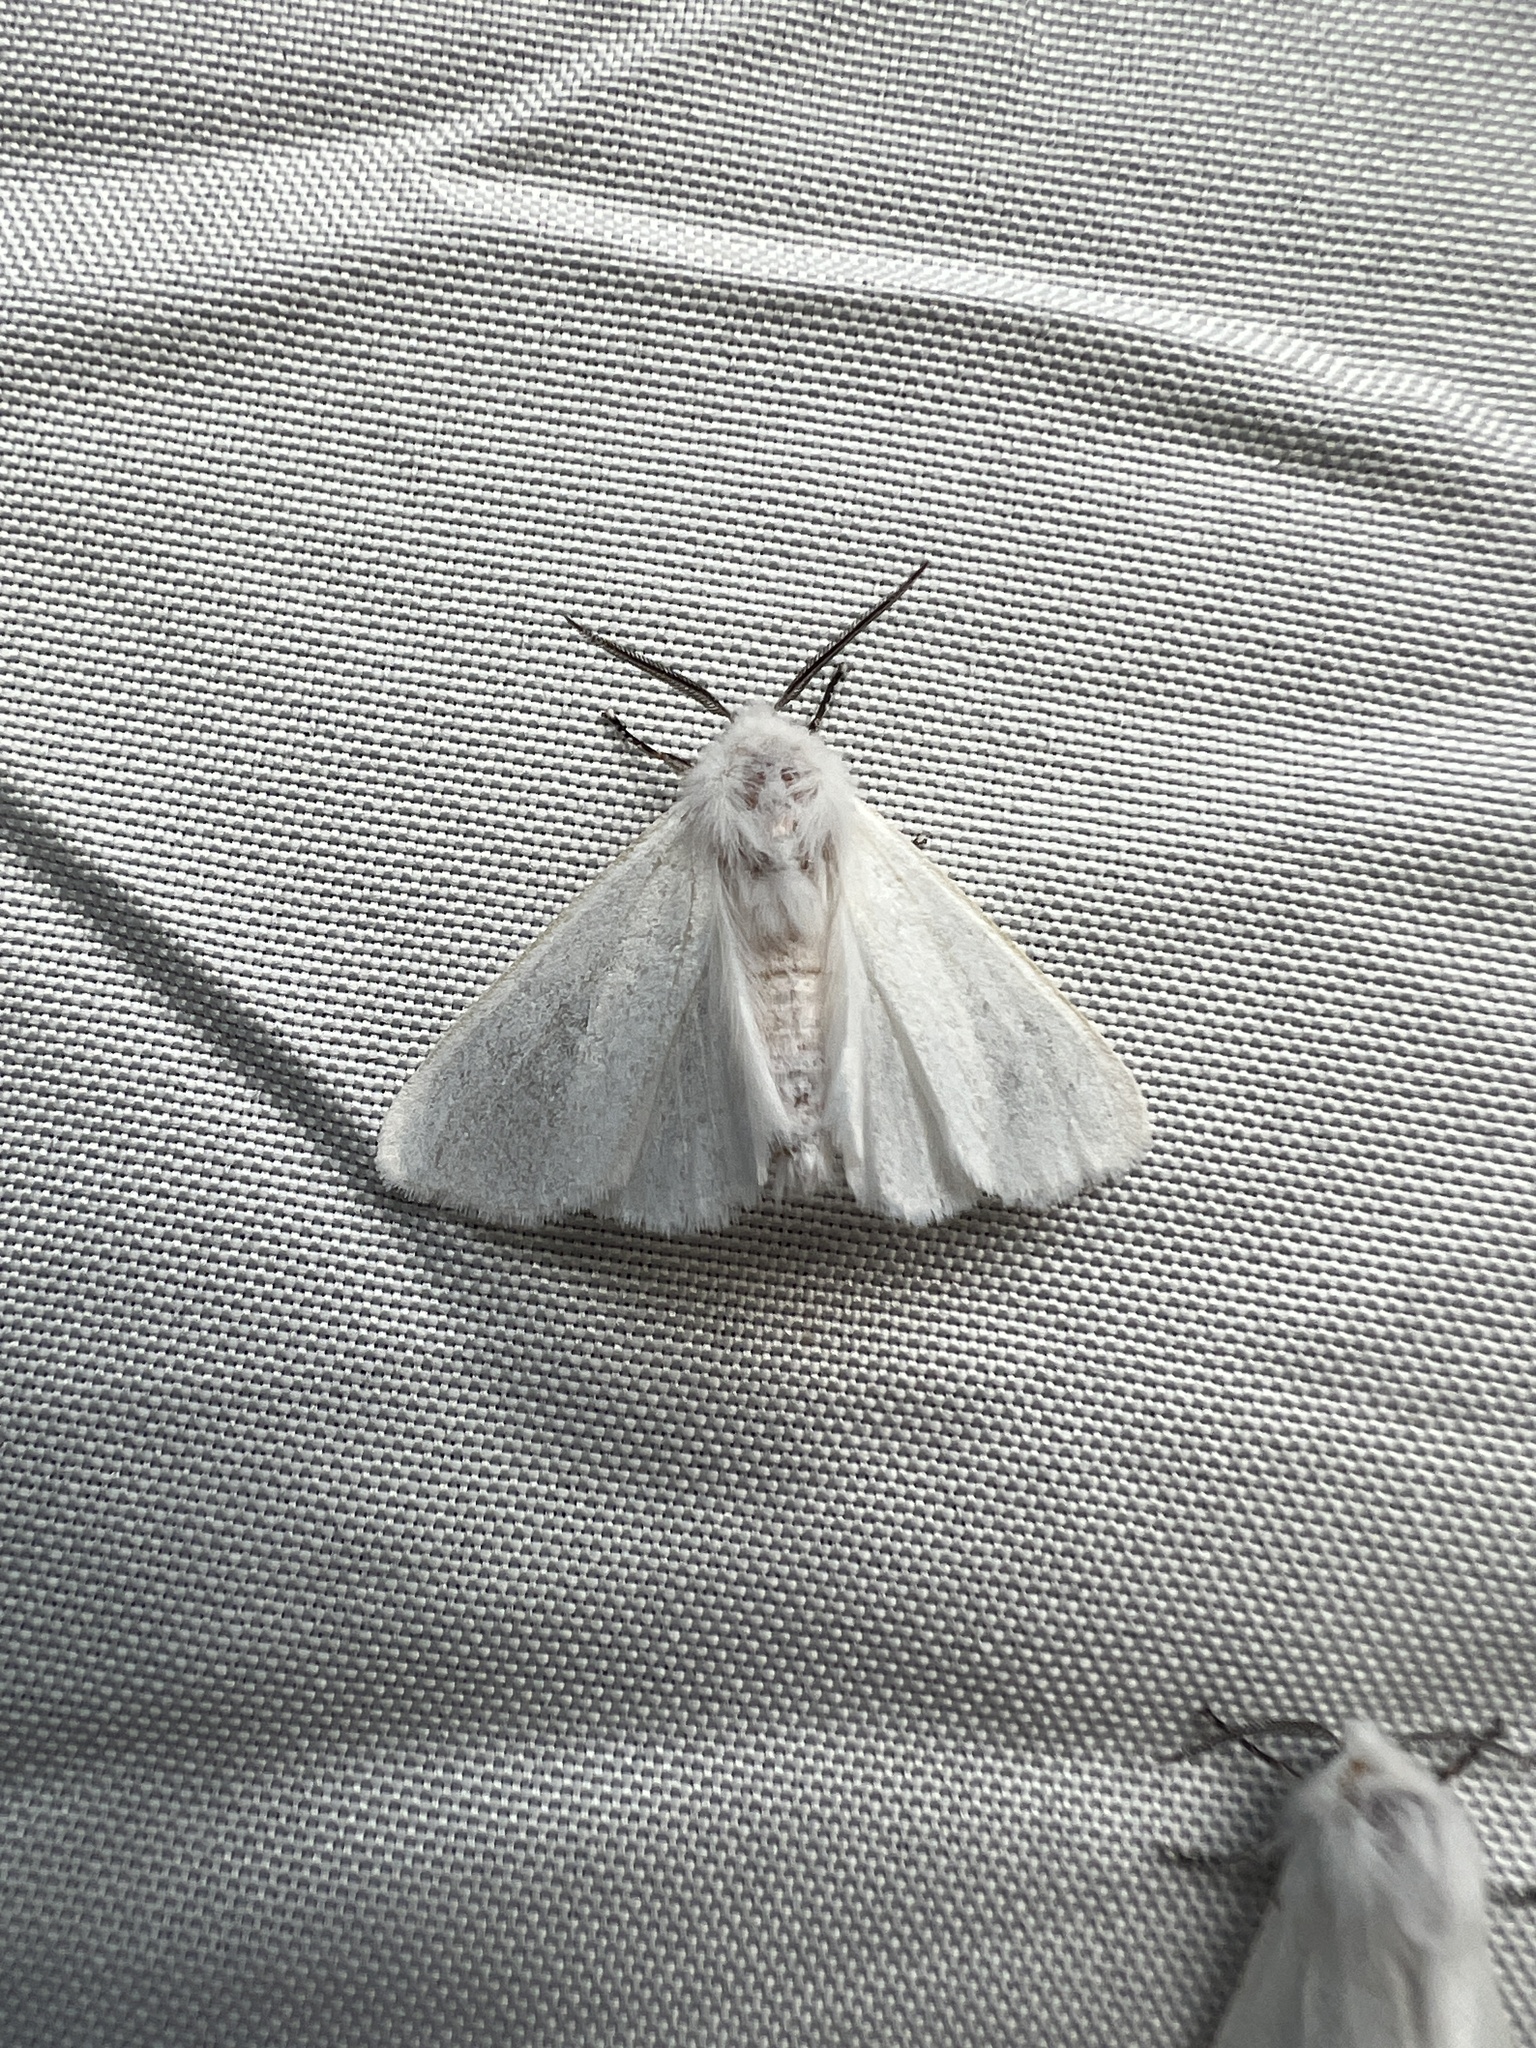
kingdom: Animalia
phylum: Arthropoda
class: Insecta
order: Lepidoptera
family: Erebidae
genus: Hyphantria
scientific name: Hyphantria cunea
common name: American white moth
